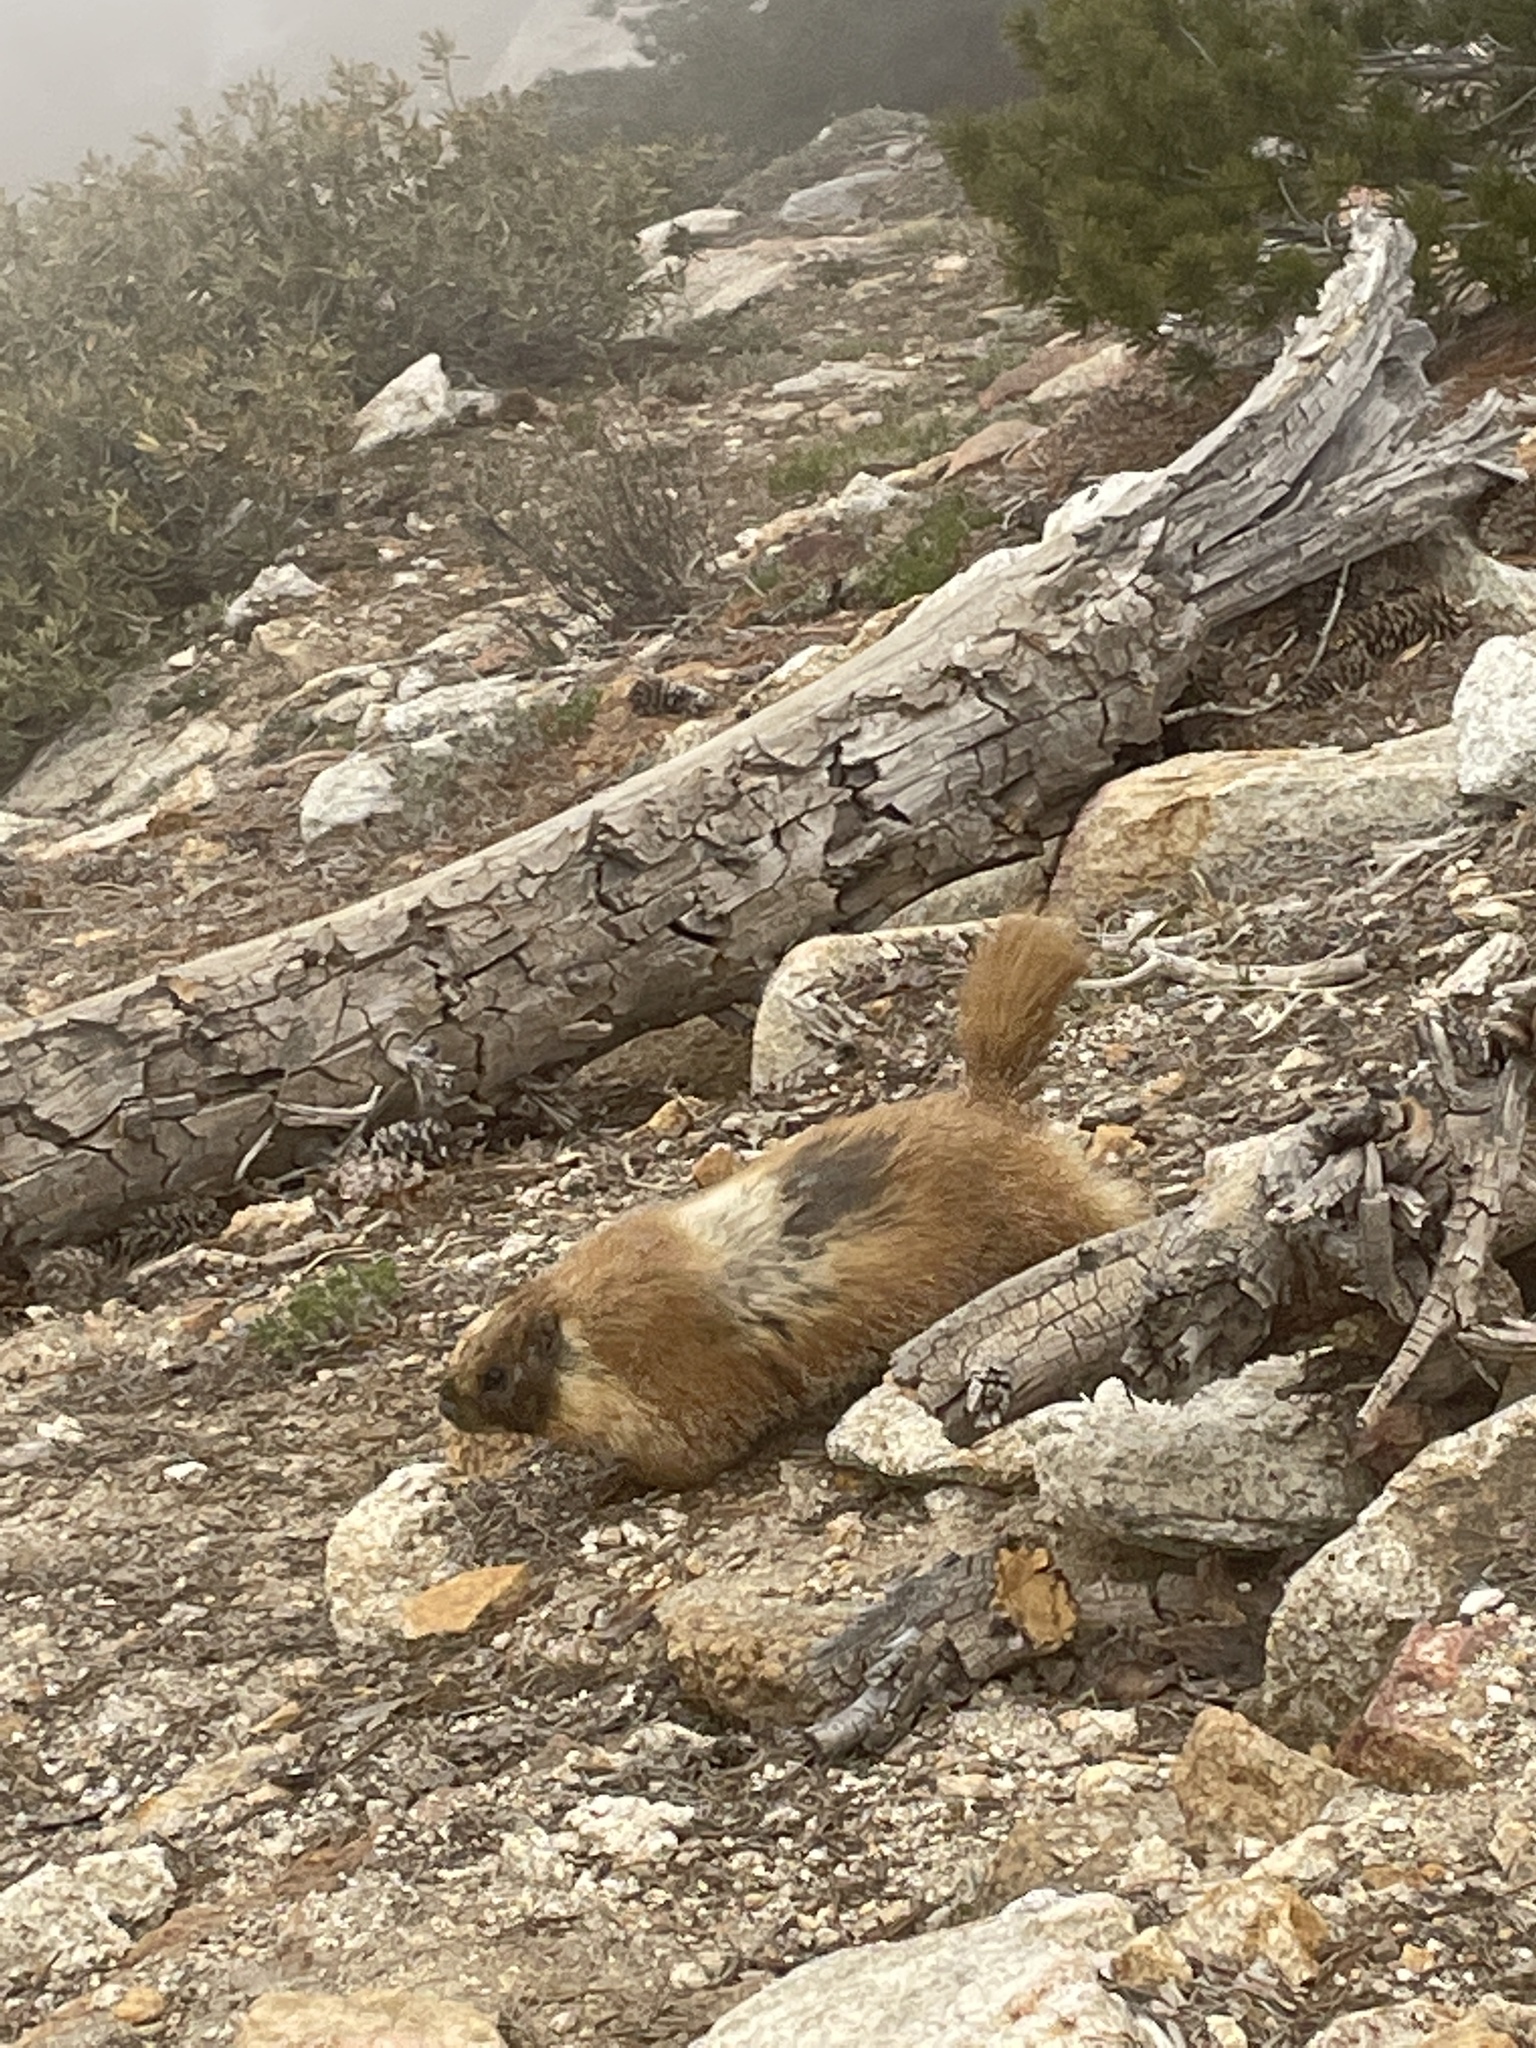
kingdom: Animalia
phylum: Chordata
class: Mammalia
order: Rodentia
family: Sciuridae
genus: Marmota
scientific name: Marmota flaviventris
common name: Yellow-bellied marmot
